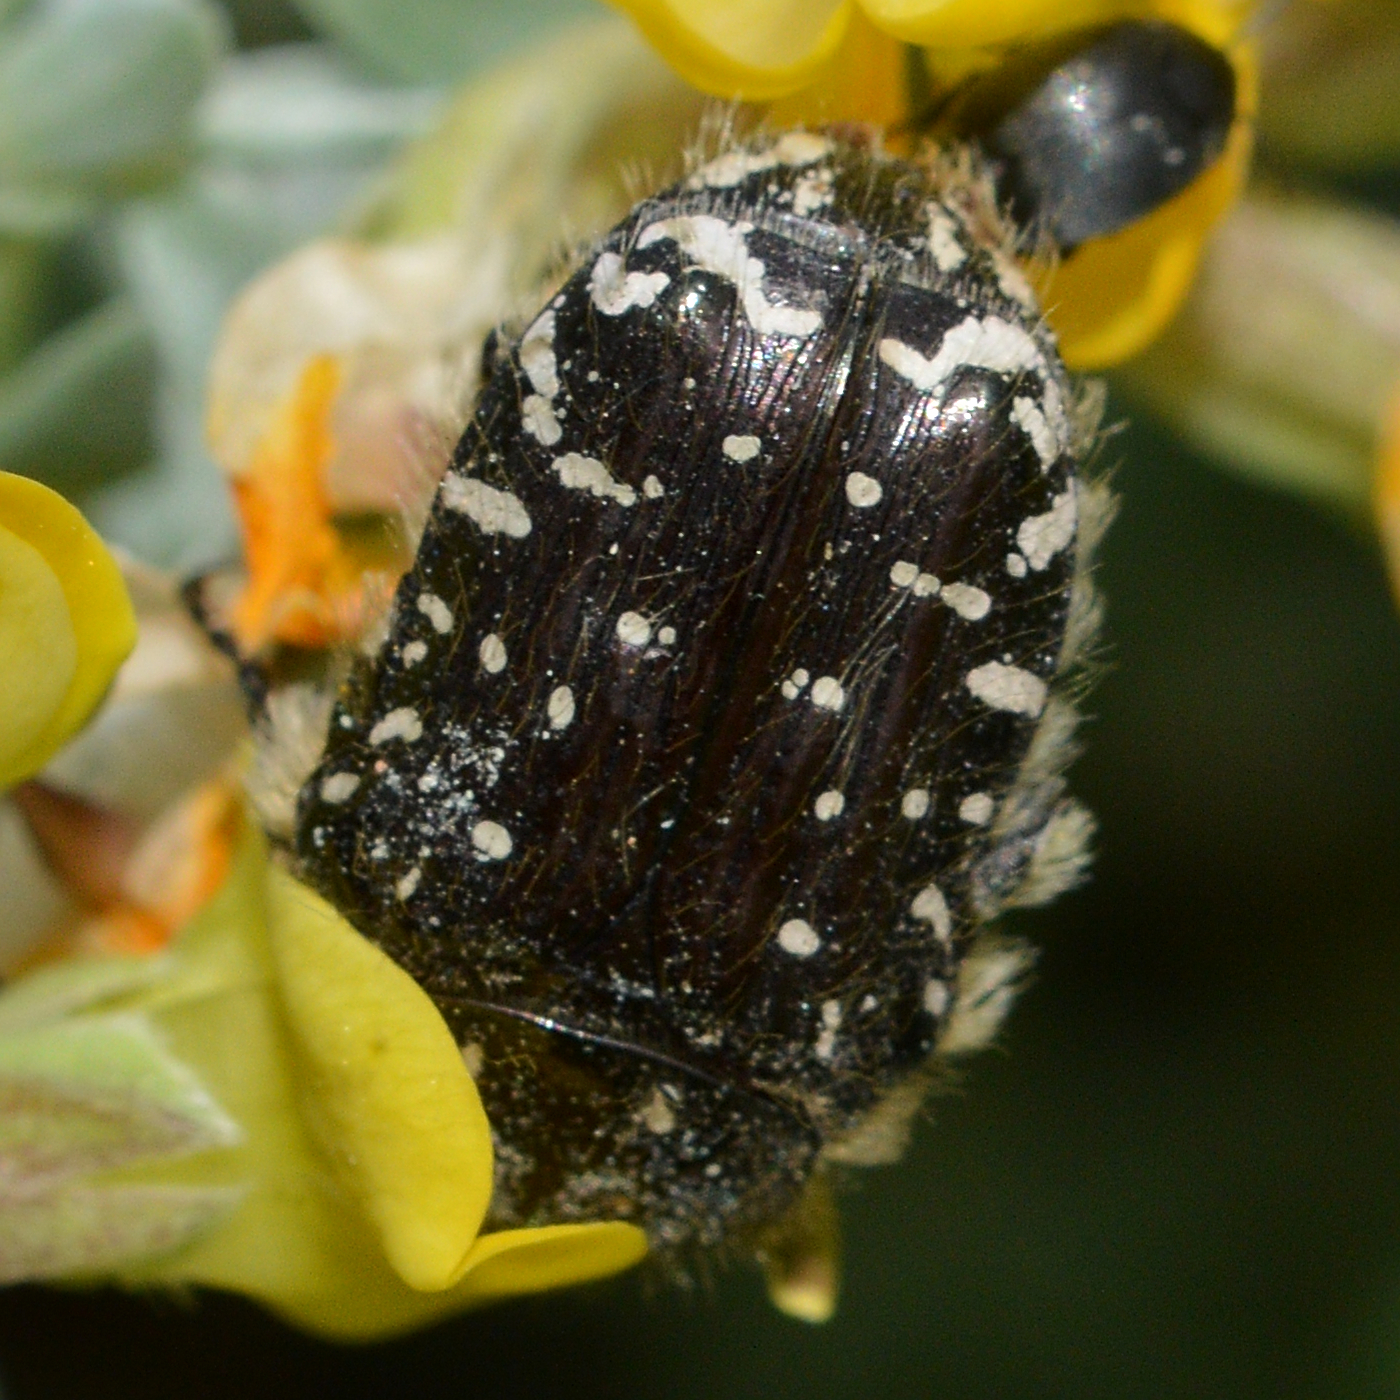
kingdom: Animalia
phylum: Arthropoda
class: Insecta
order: Coleoptera
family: Scarabaeidae
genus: Oxythyrea
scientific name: Oxythyrea funesta
